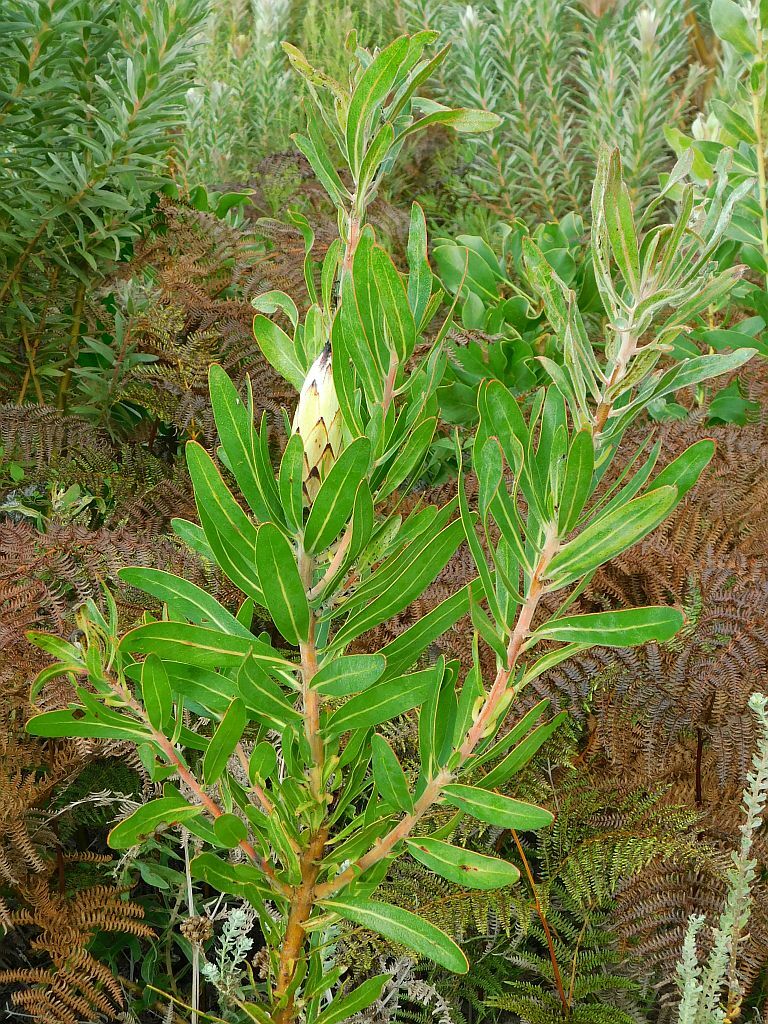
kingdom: Plantae
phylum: Tracheophyta
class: Magnoliopsida
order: Proteales
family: Proteaceae
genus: Protea
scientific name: Protea neriifolia
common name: Blue sugarbush
